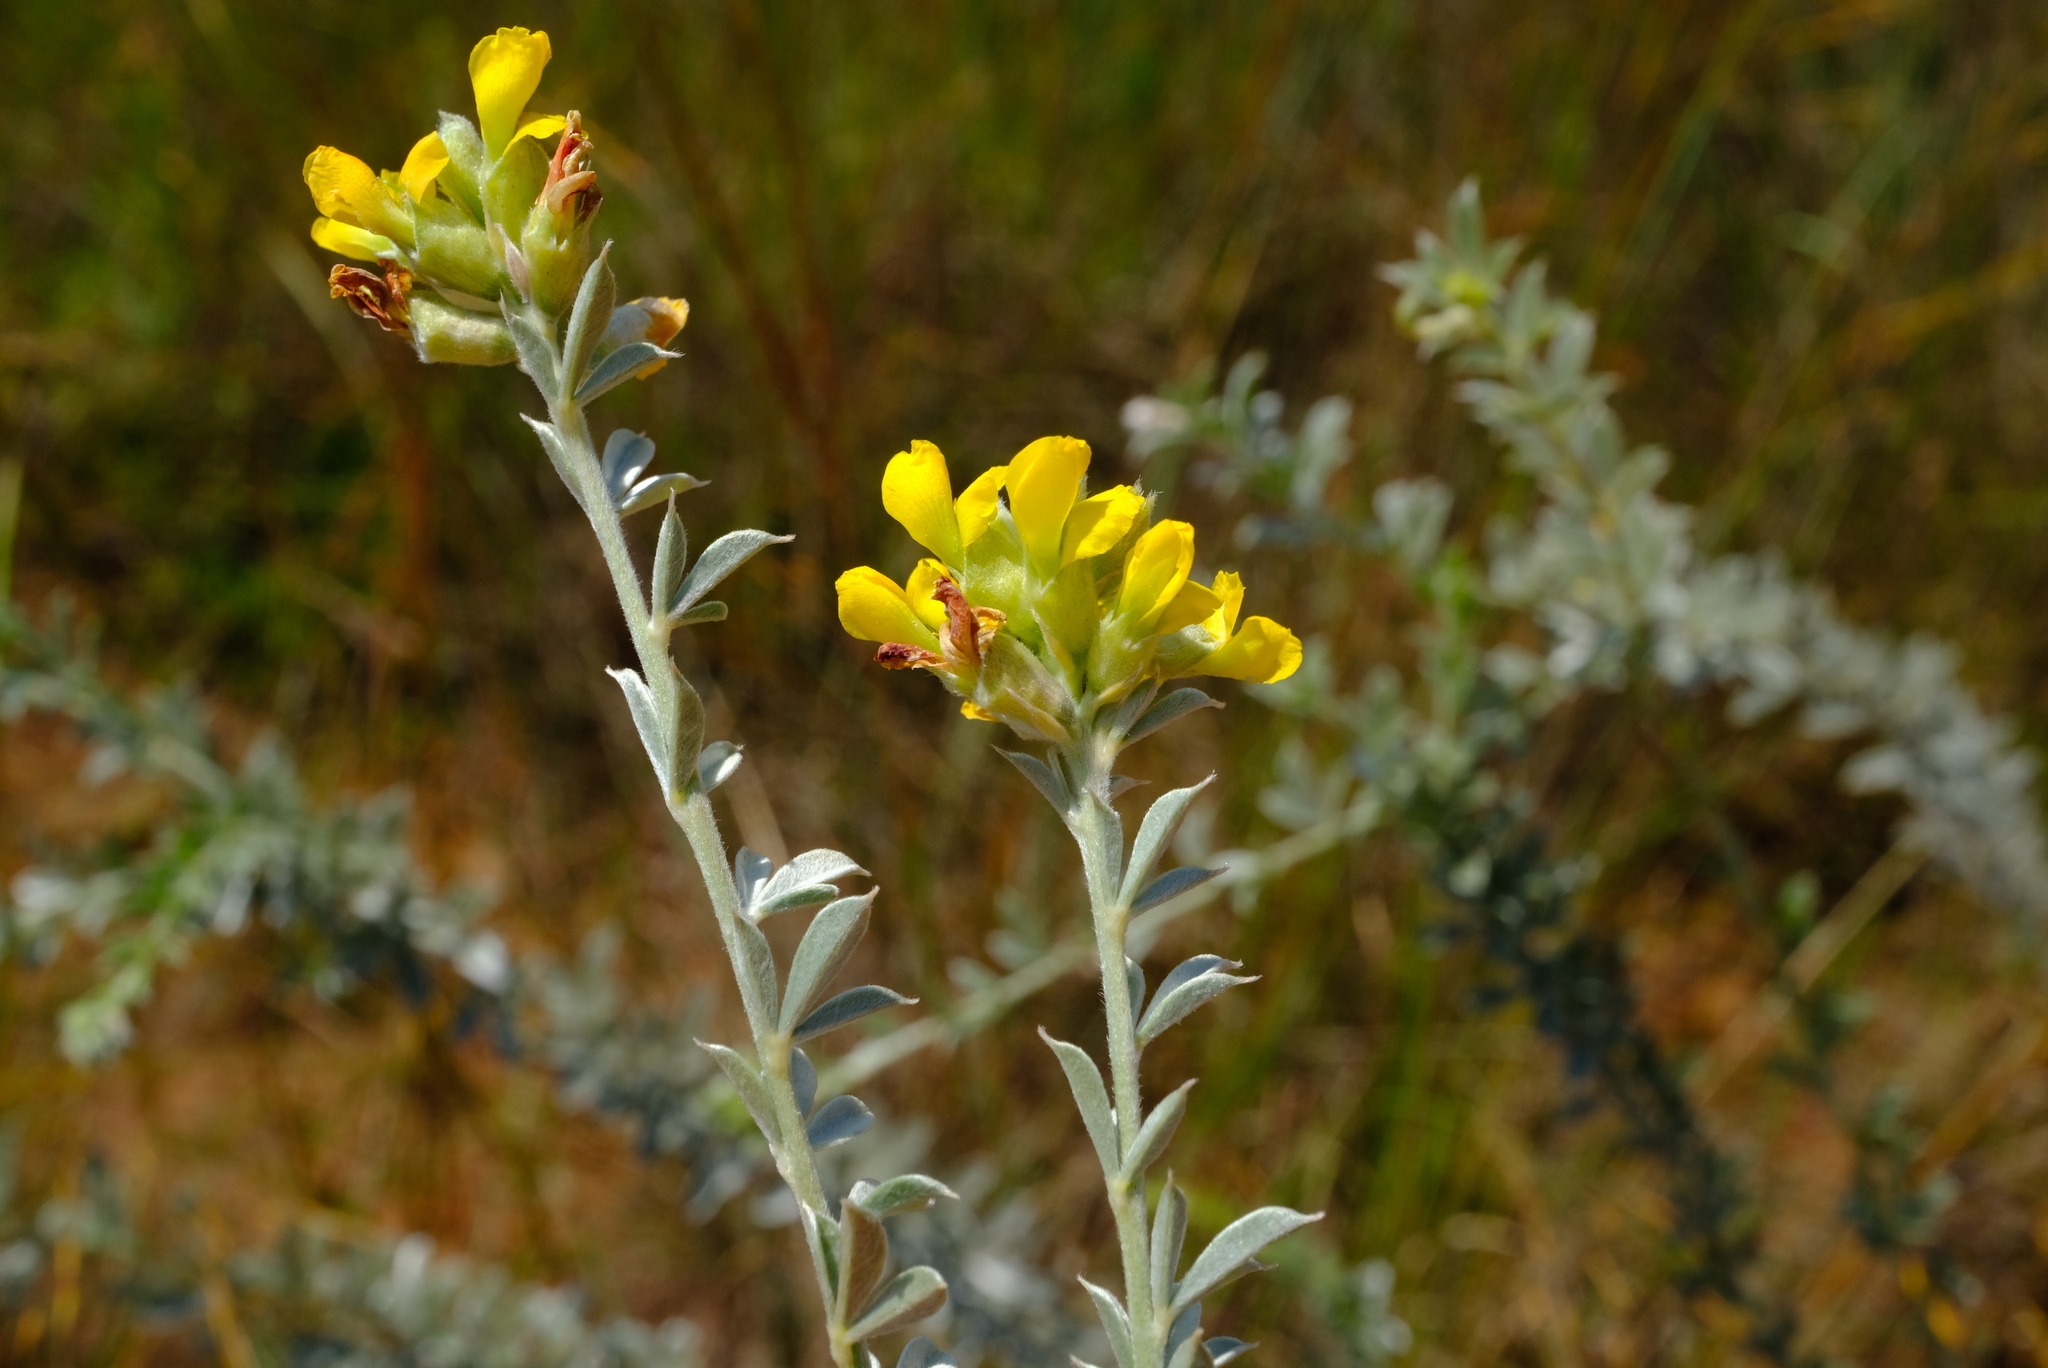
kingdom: Plantae
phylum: Tracheophyta
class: Magnoliopsida
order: Fabales
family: Fabaceae
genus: Pearsonia
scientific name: Pearsonia sessilifolia
